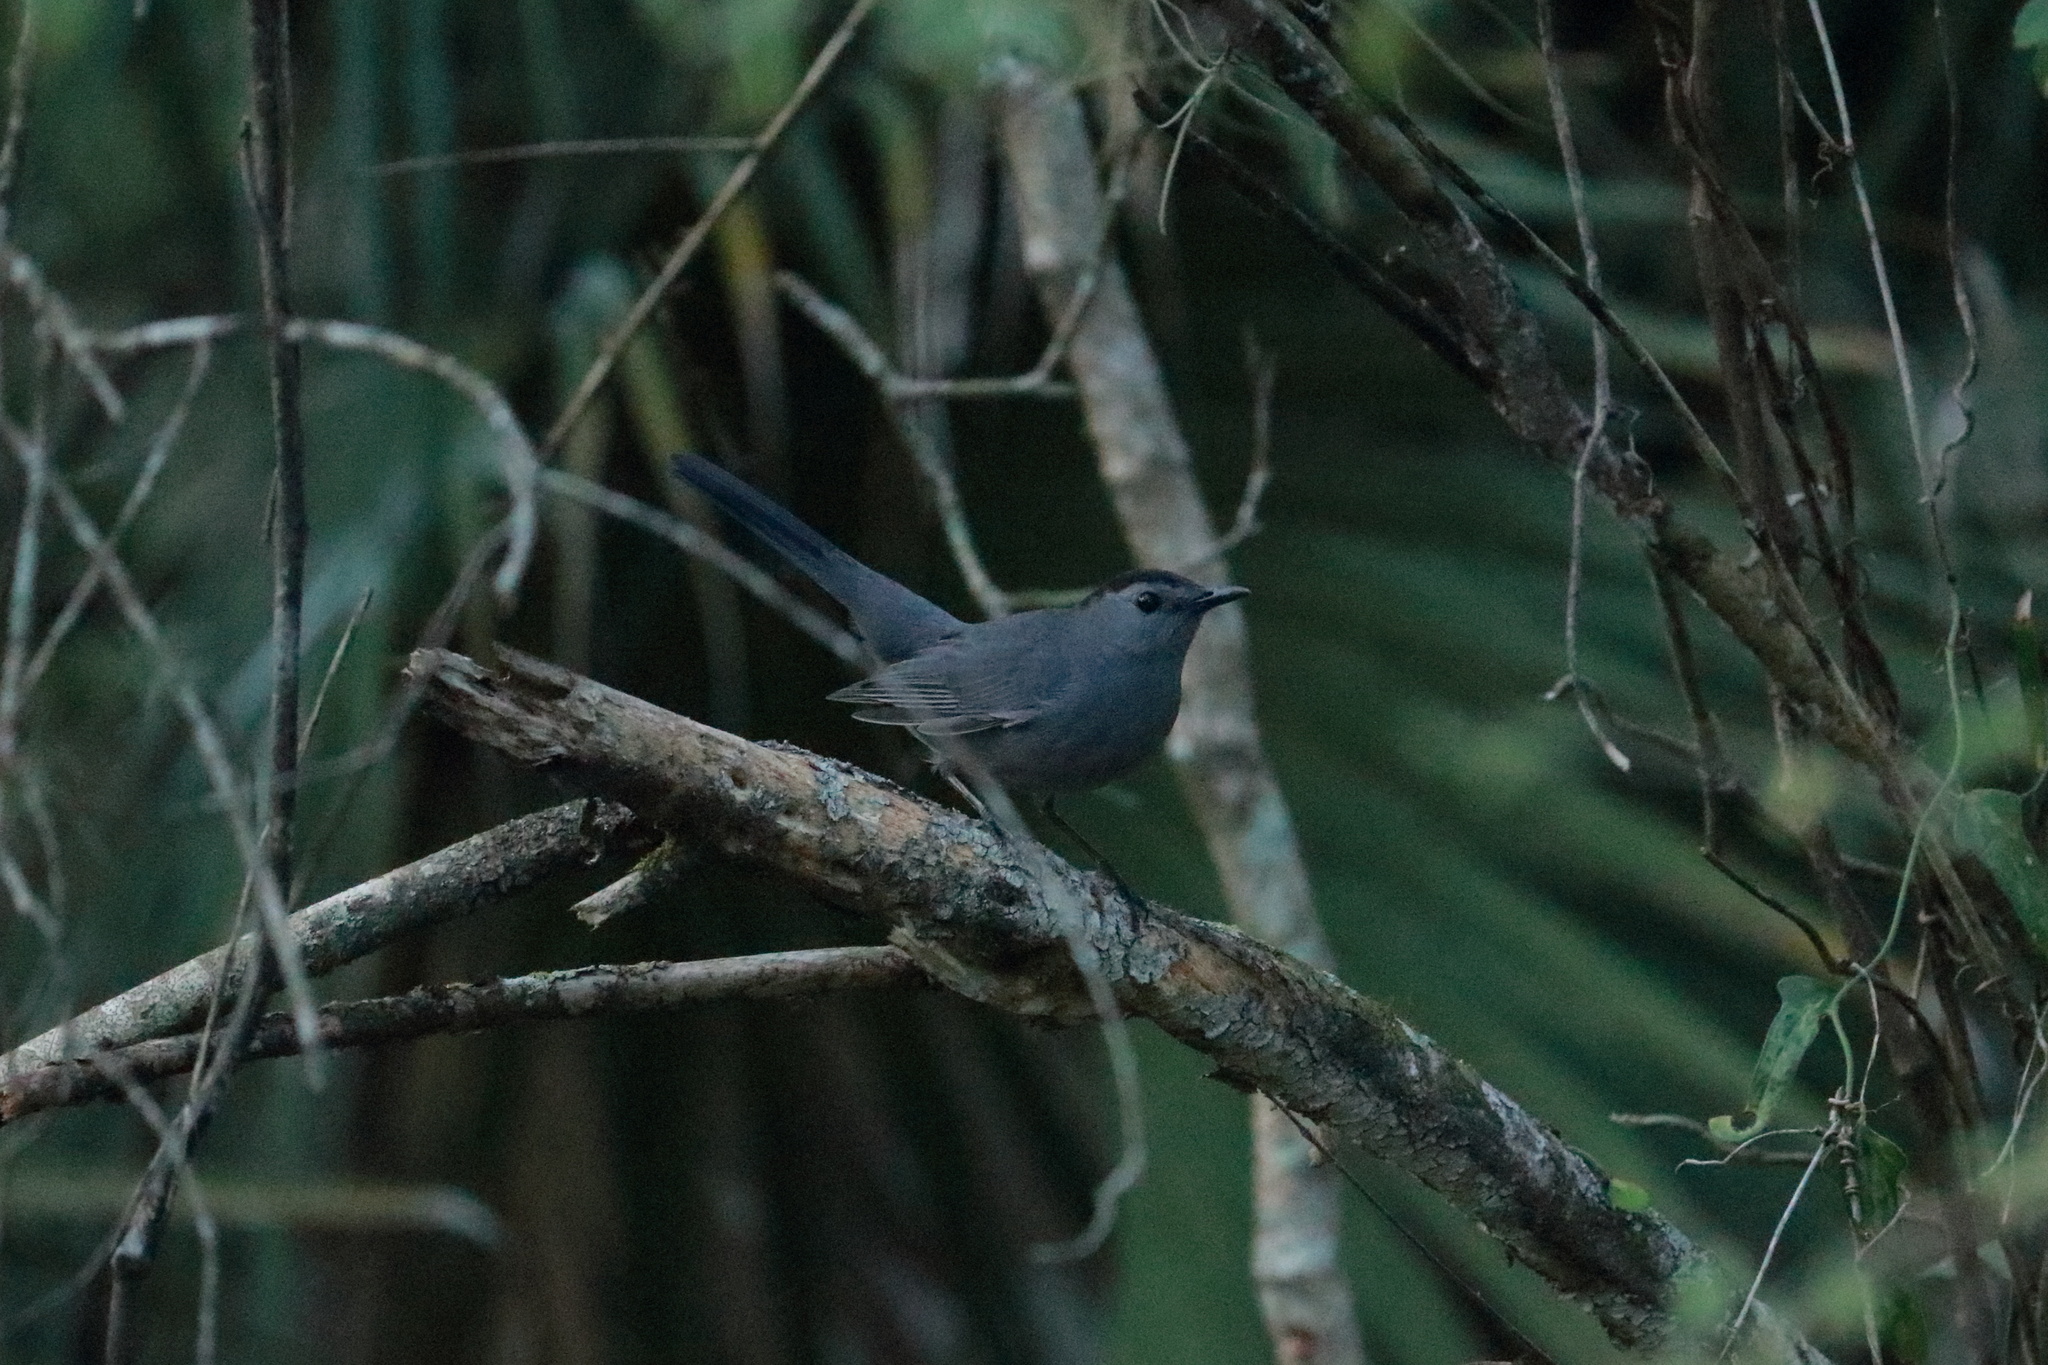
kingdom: Animalia
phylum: Chordata
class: Aves
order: Passeriformes
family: Mimidae
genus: Dumetella
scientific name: Dumetella carolinensis
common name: Gray catbird
